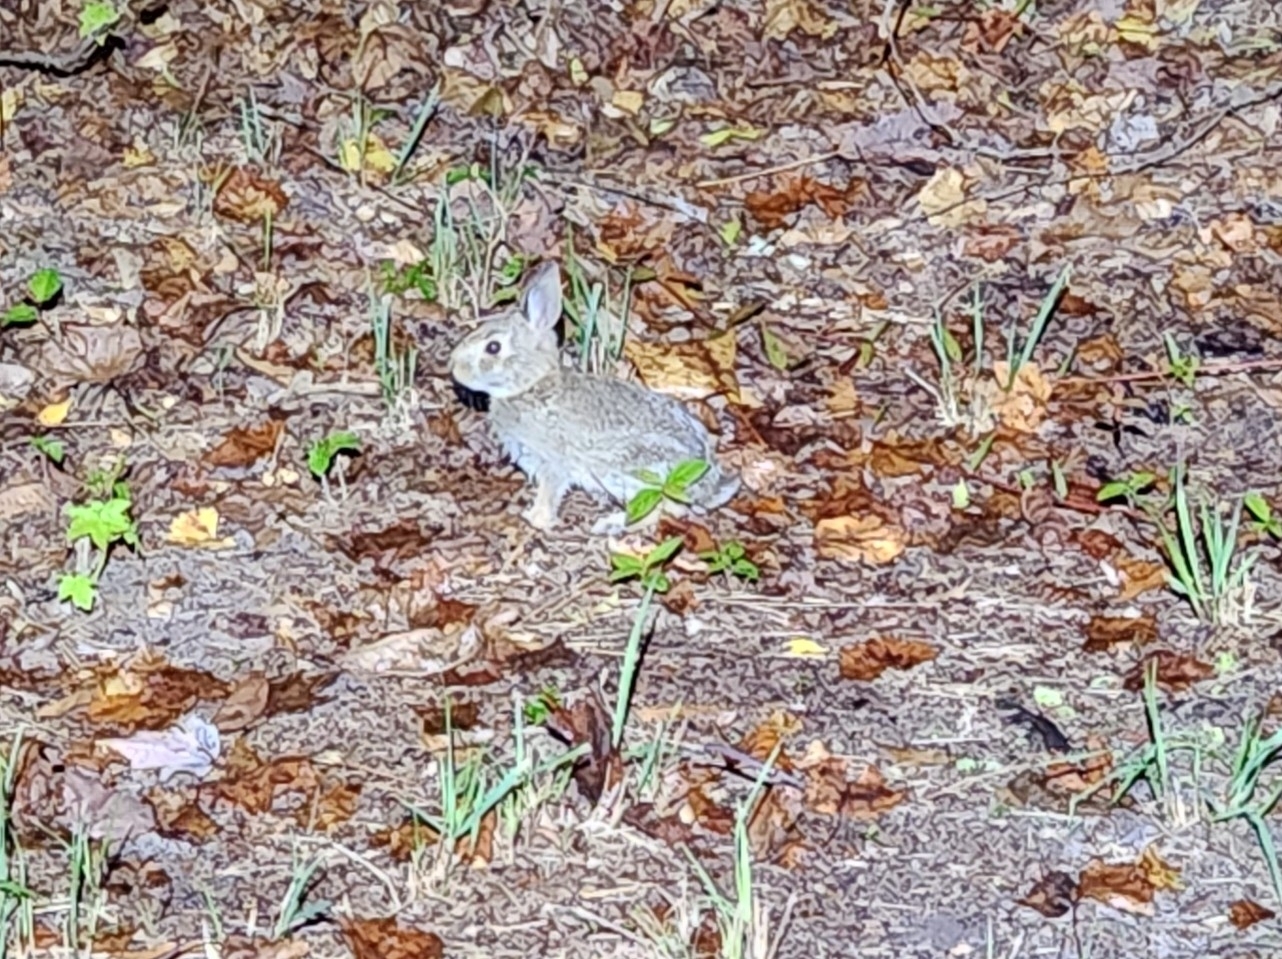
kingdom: Animalia
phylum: Chordata
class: Mammalia
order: Lagomorpha
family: Leporidae
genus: Sylvilagus
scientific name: Sylvilagus floridanus
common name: Eastern cottontail
